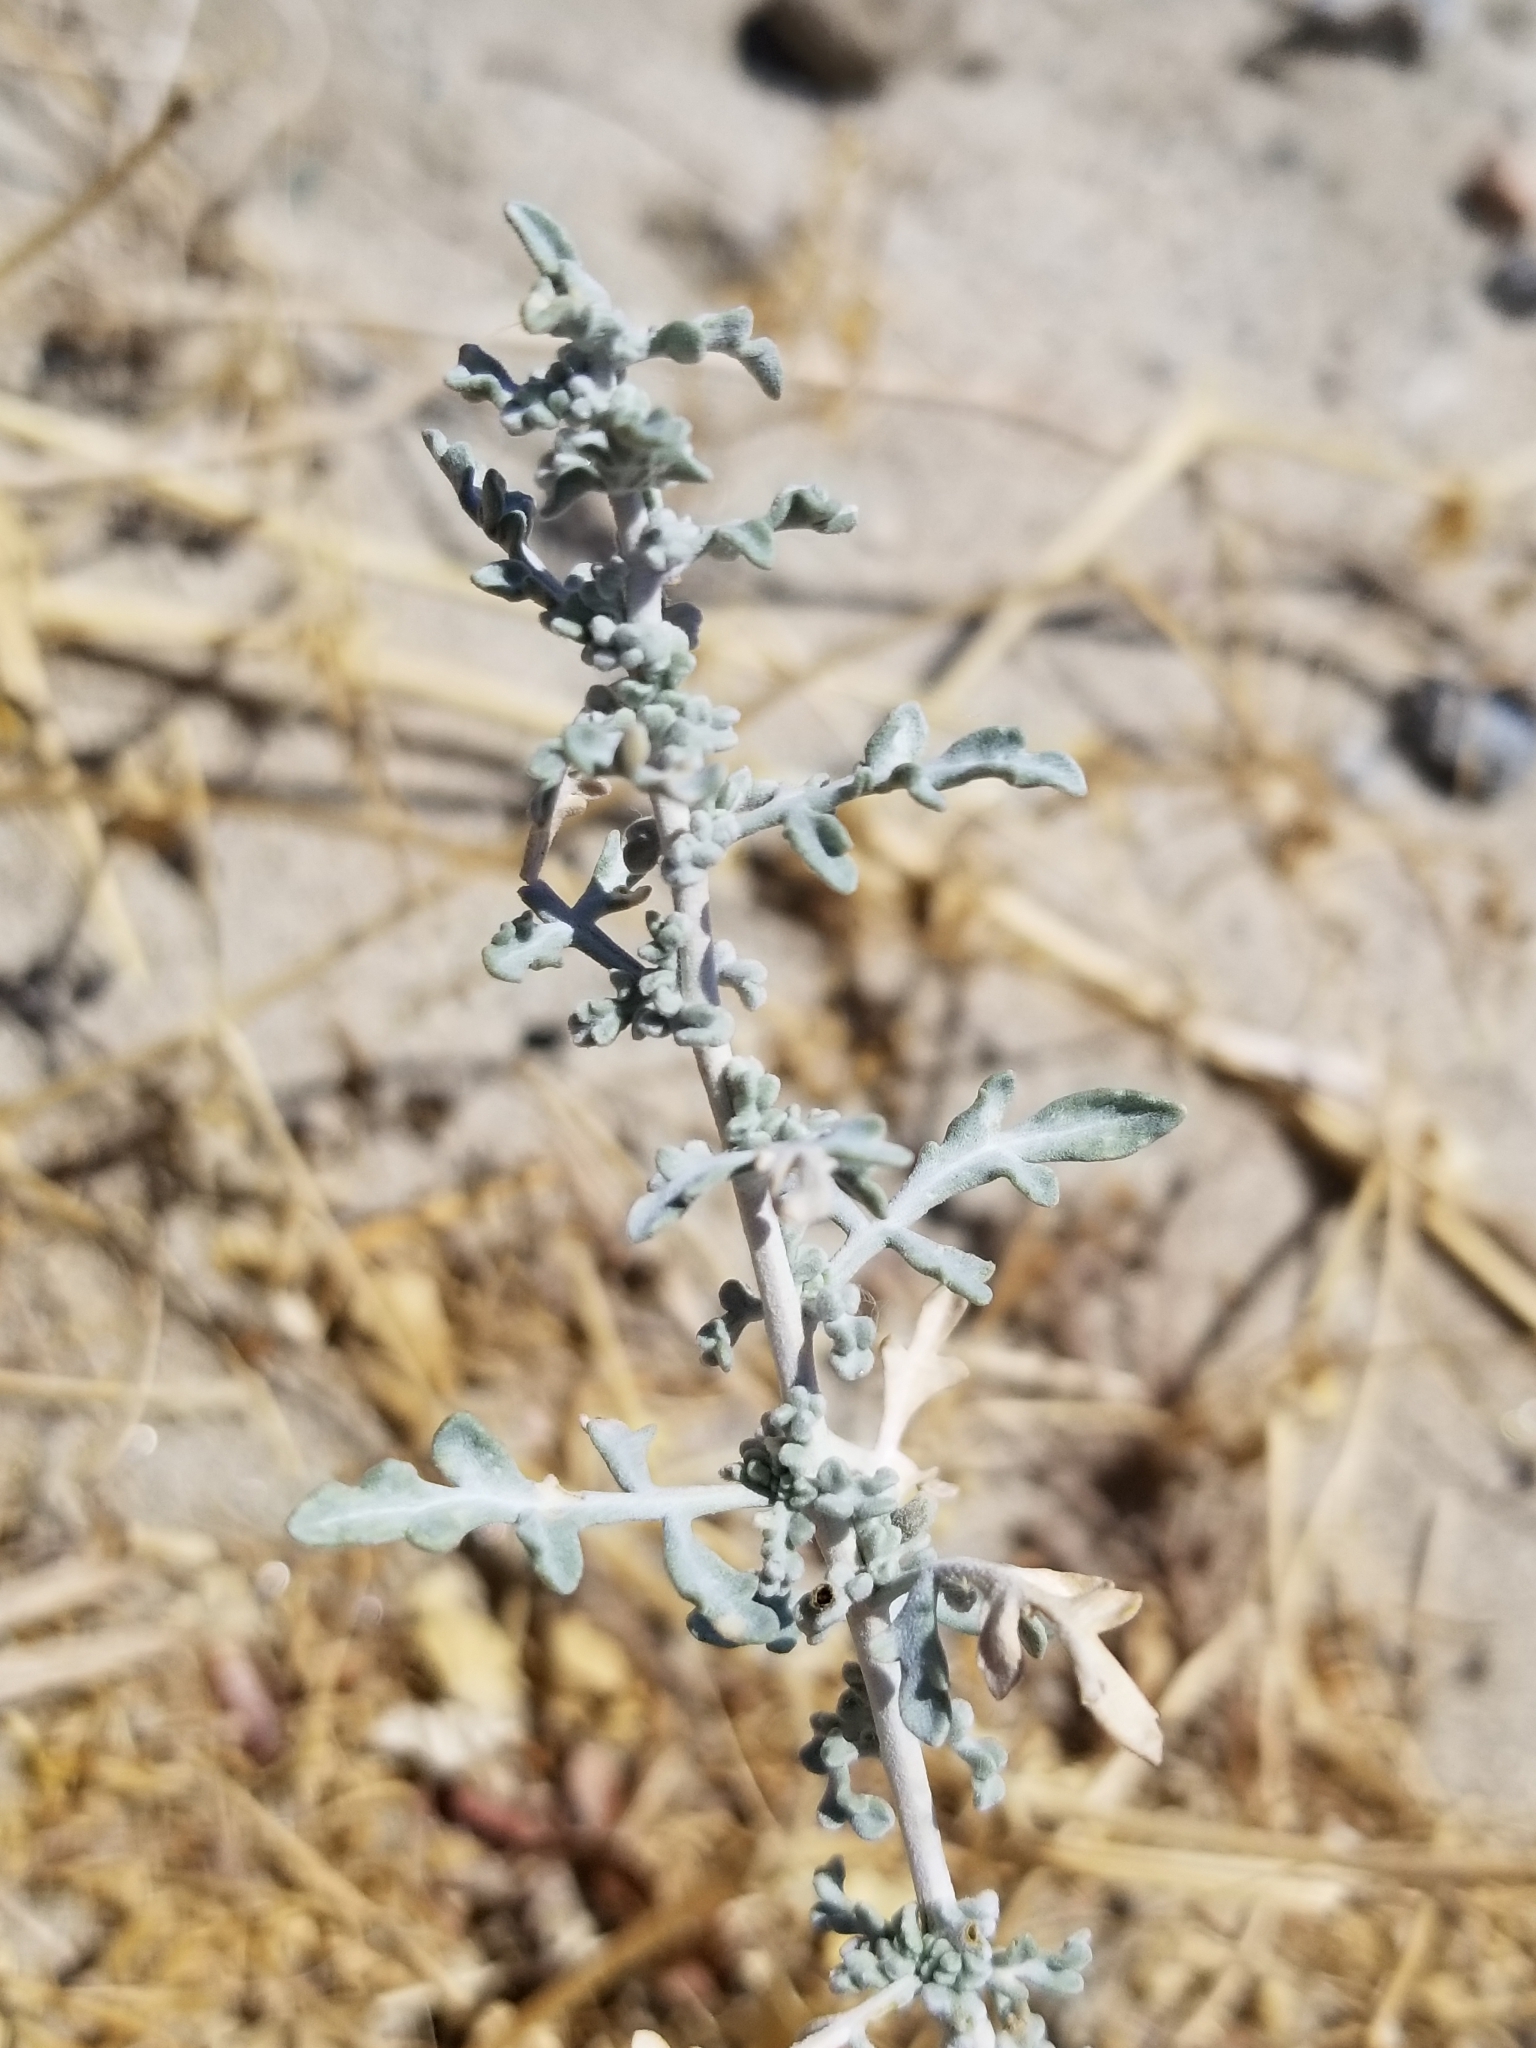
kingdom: Plantae
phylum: Tracheophyta
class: Magnoliopsida
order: Asterales
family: Asteraceae
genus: Ambrosia
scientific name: Ambrosia dumosa
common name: Bur-sage
